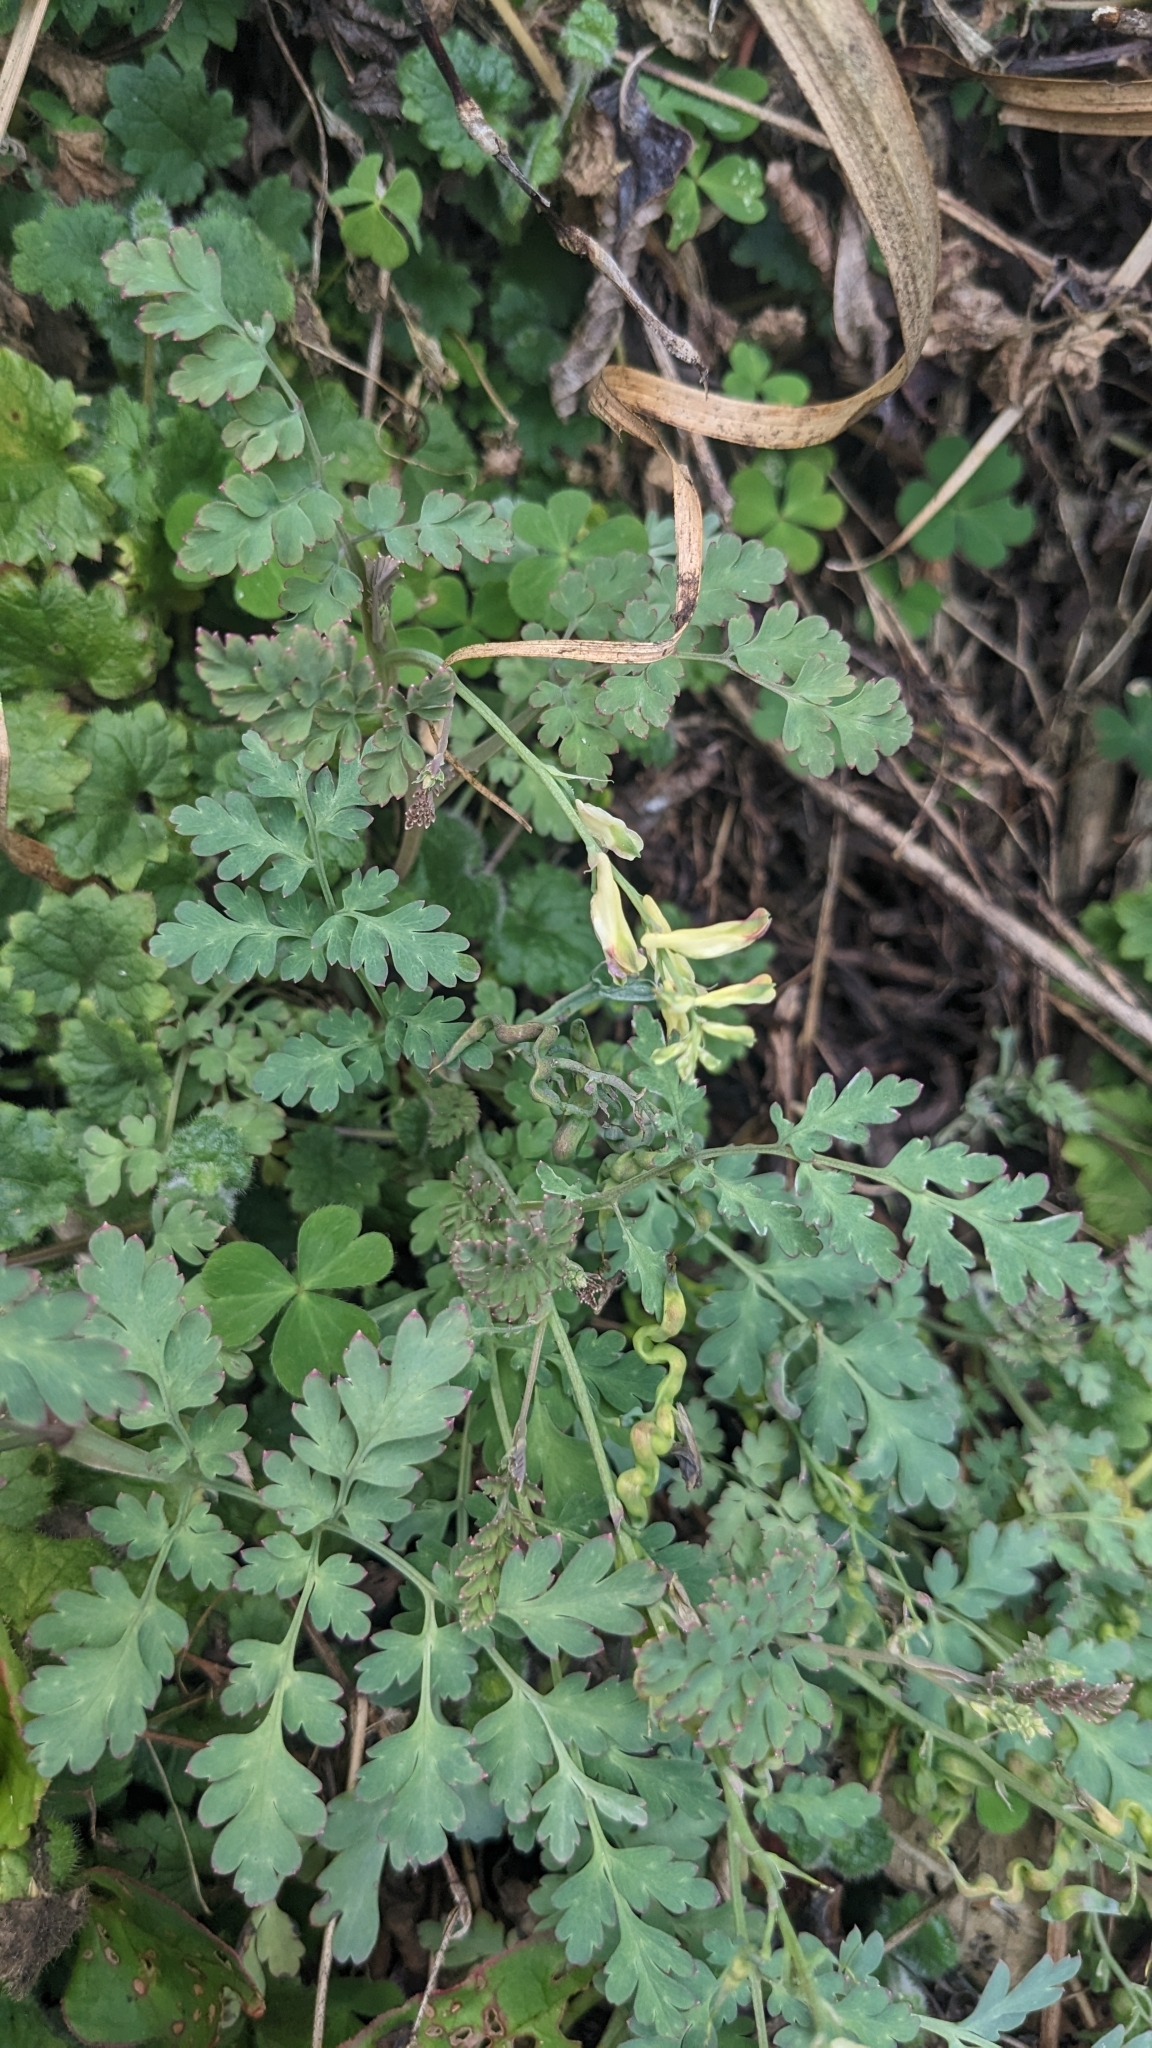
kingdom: Plantae
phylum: Tracheophyta
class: Magnoliopsida
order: Ranunculales
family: Papaveraceae
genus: Corydalis
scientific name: Corydalis ophiocarpa
